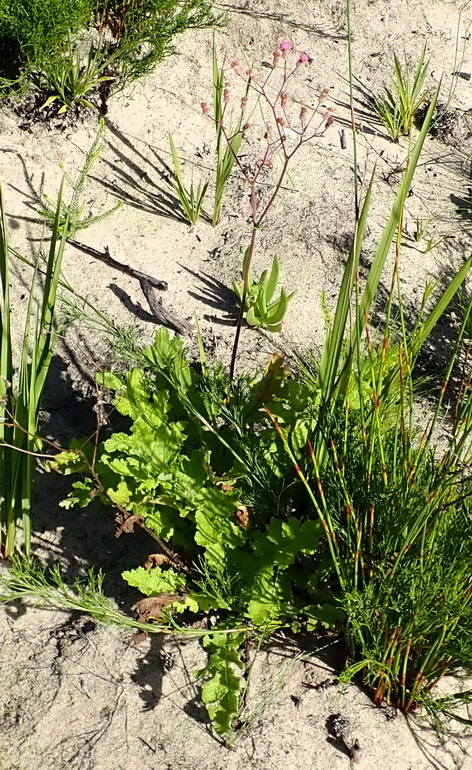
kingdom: Plantae
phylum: Tracheophyta
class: Magnoliopsida
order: Asterales
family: Asteraceae
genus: Senecio
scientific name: Senecio purpureus
